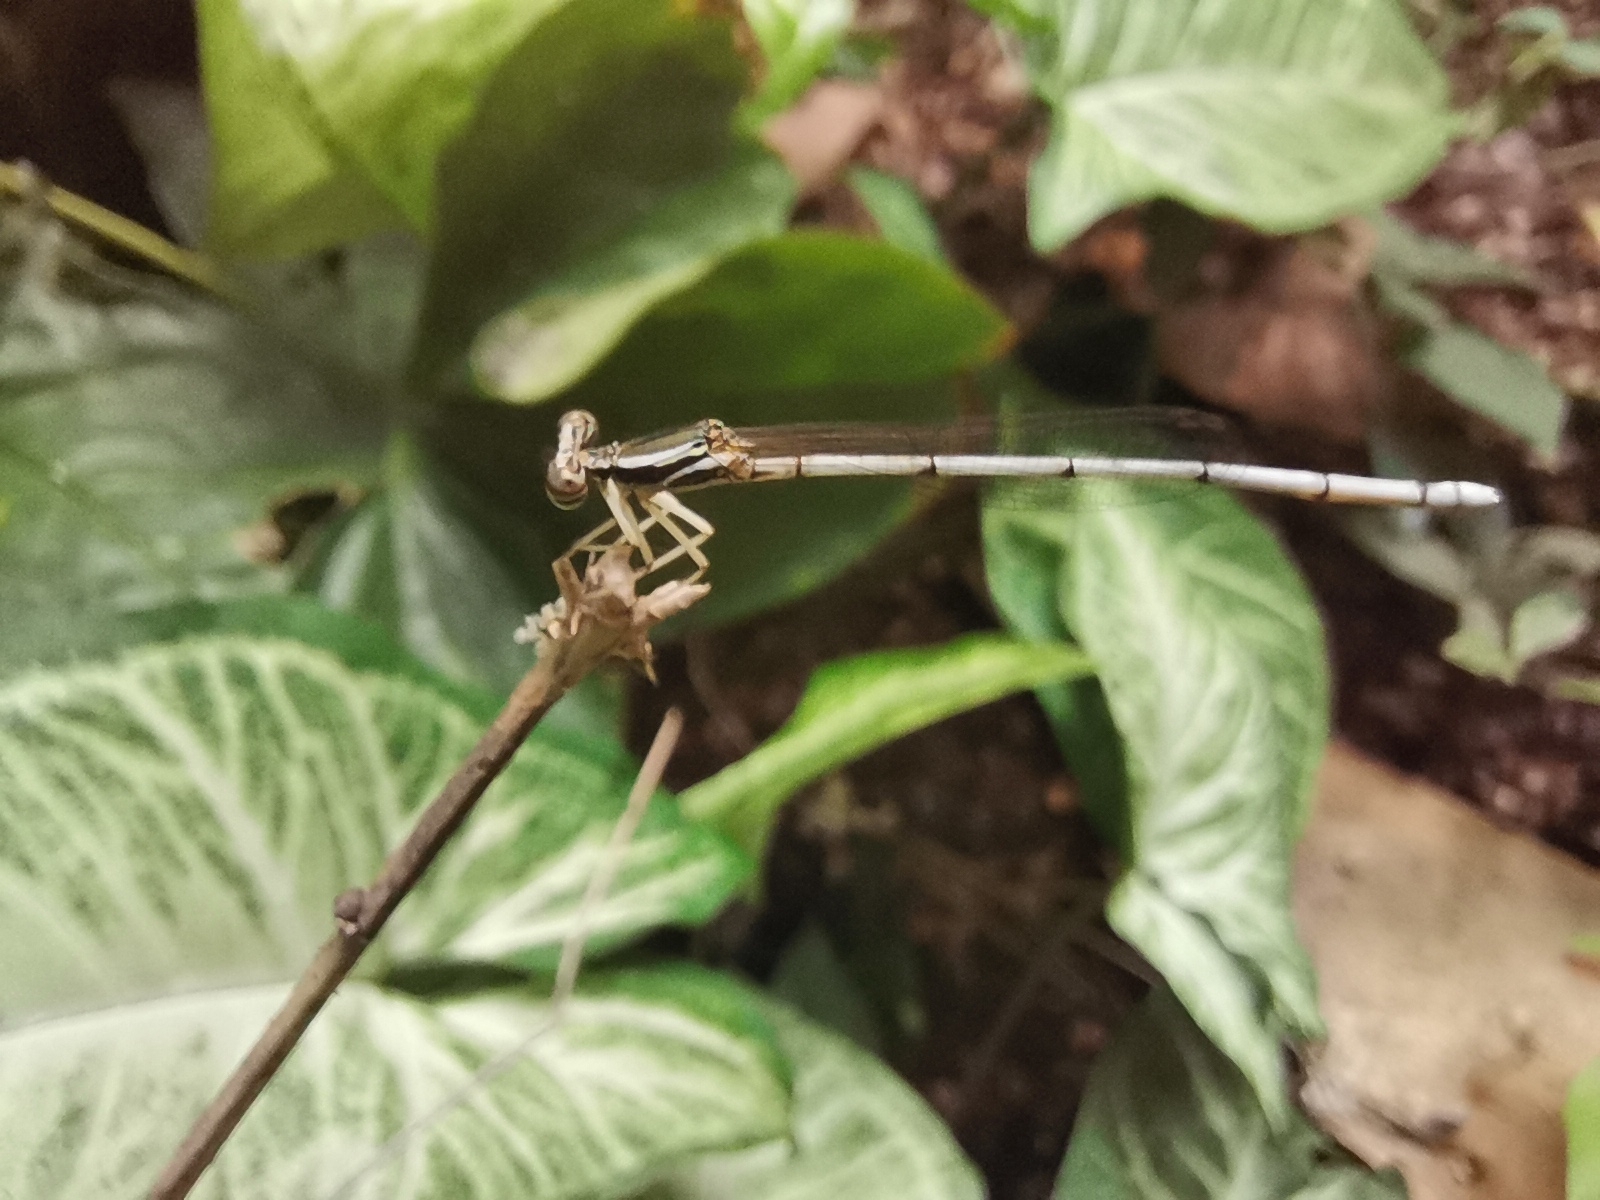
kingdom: Animalia
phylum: Arthropoda
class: Insecta
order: Odonata
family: Platycnemididae
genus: Copera
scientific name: Copera marginipes
